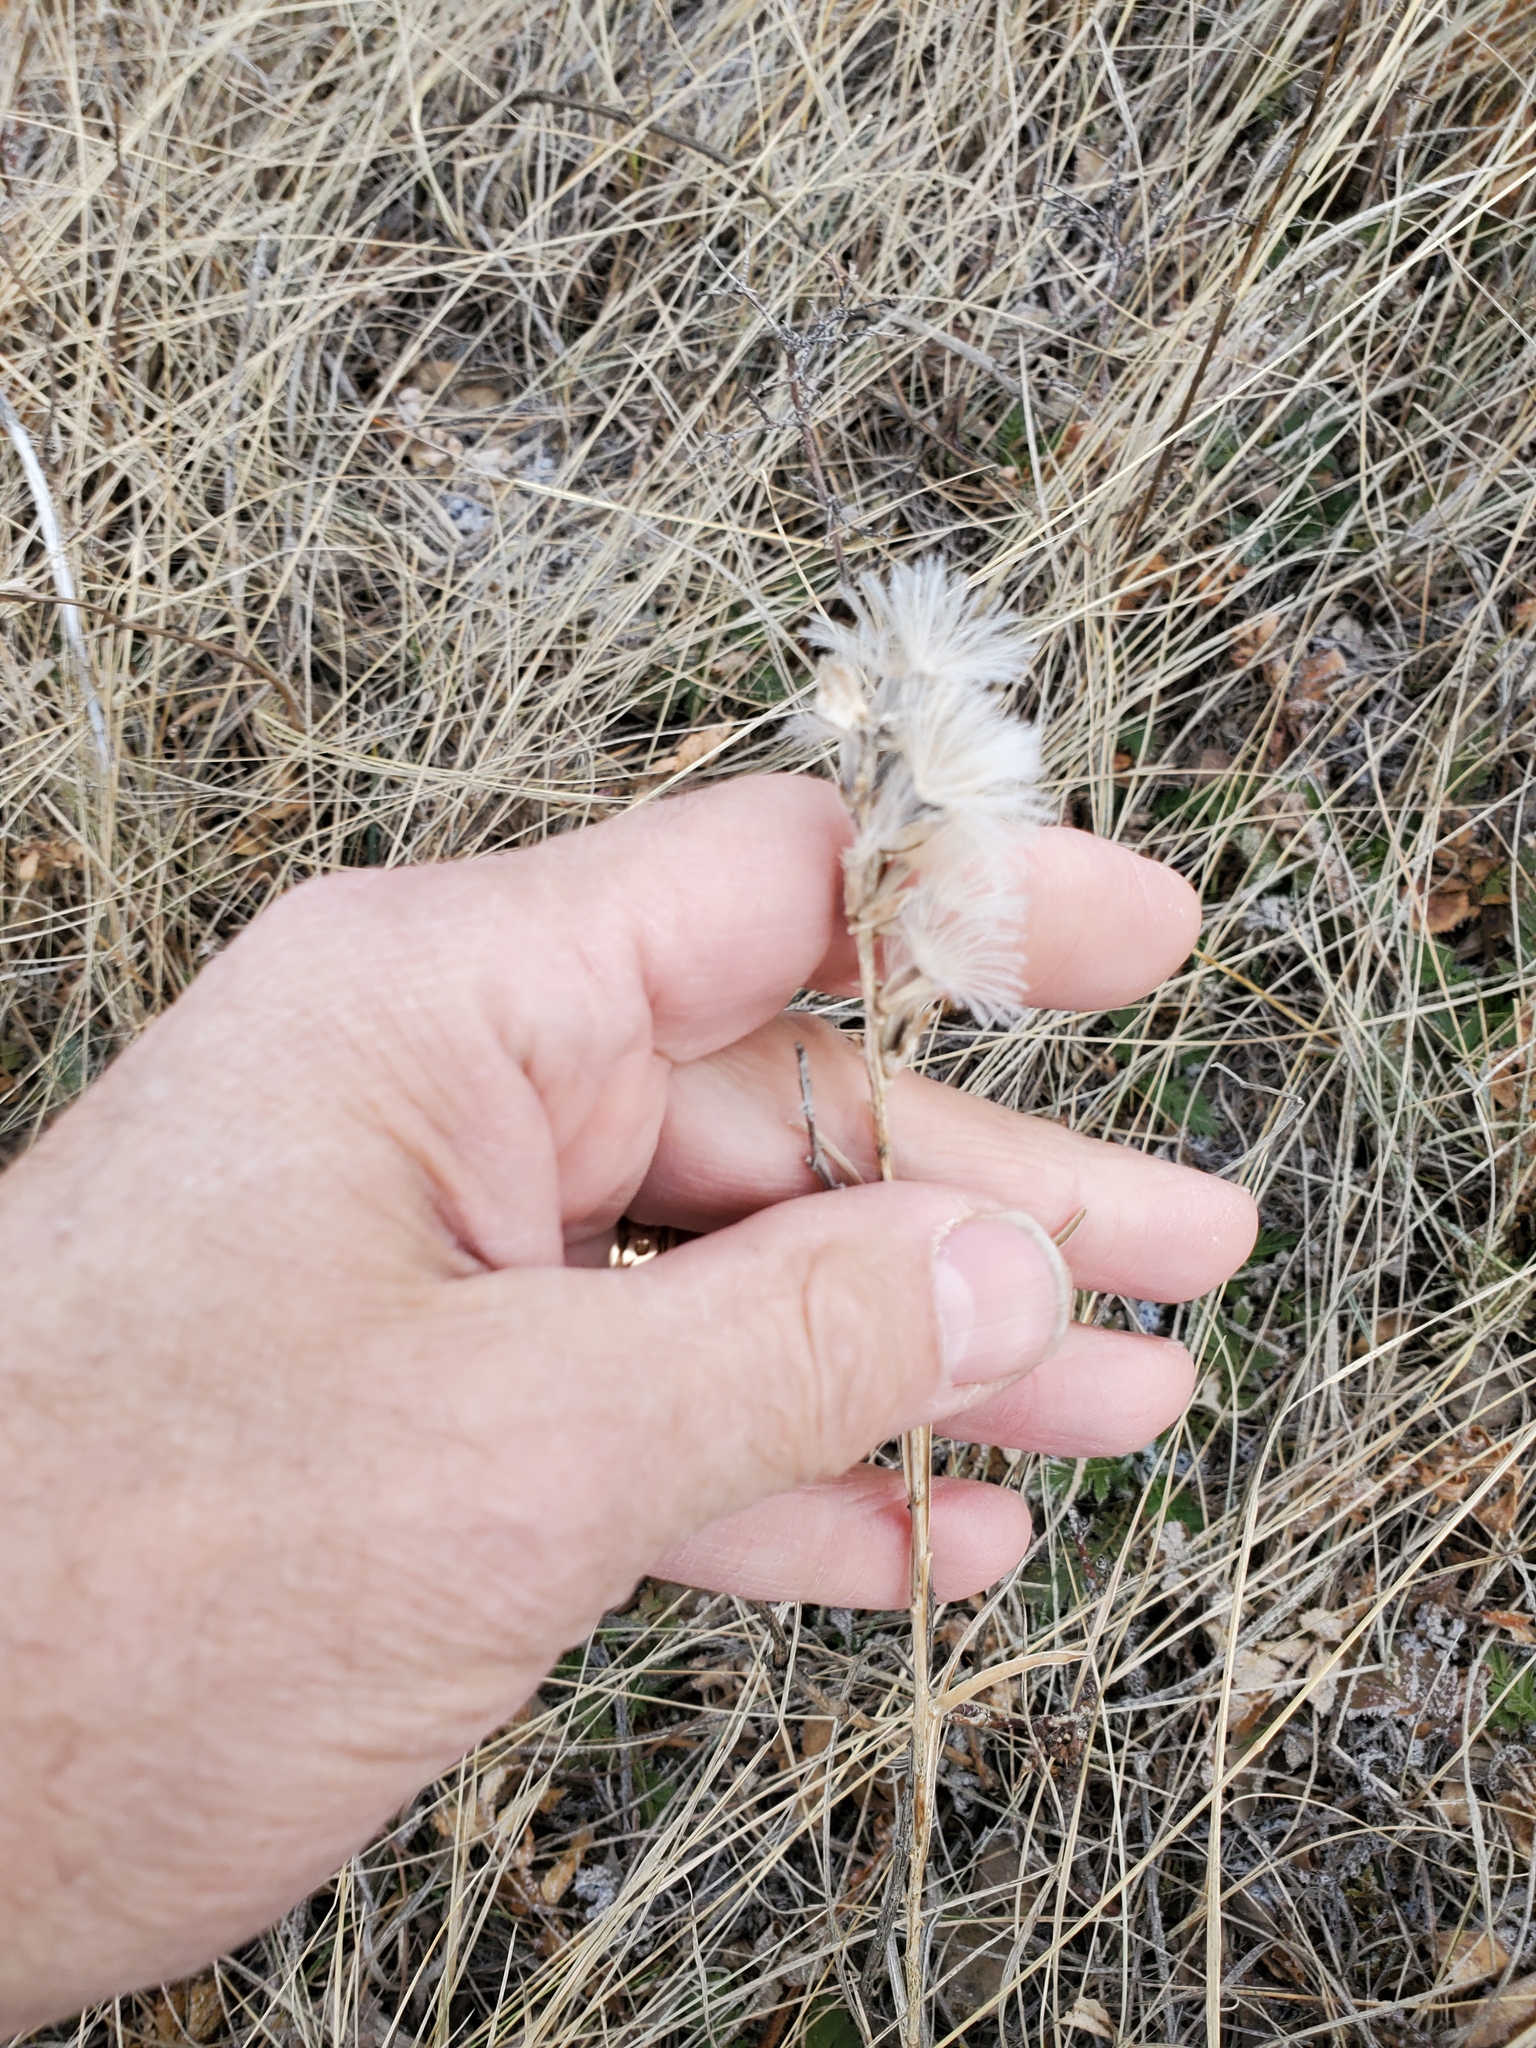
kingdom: Plantae
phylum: Tracheophyta
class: Magnoliopsida
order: Asterales
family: Asteraceae
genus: Liatris
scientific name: Liatris punctata
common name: Dotted gayfeather
